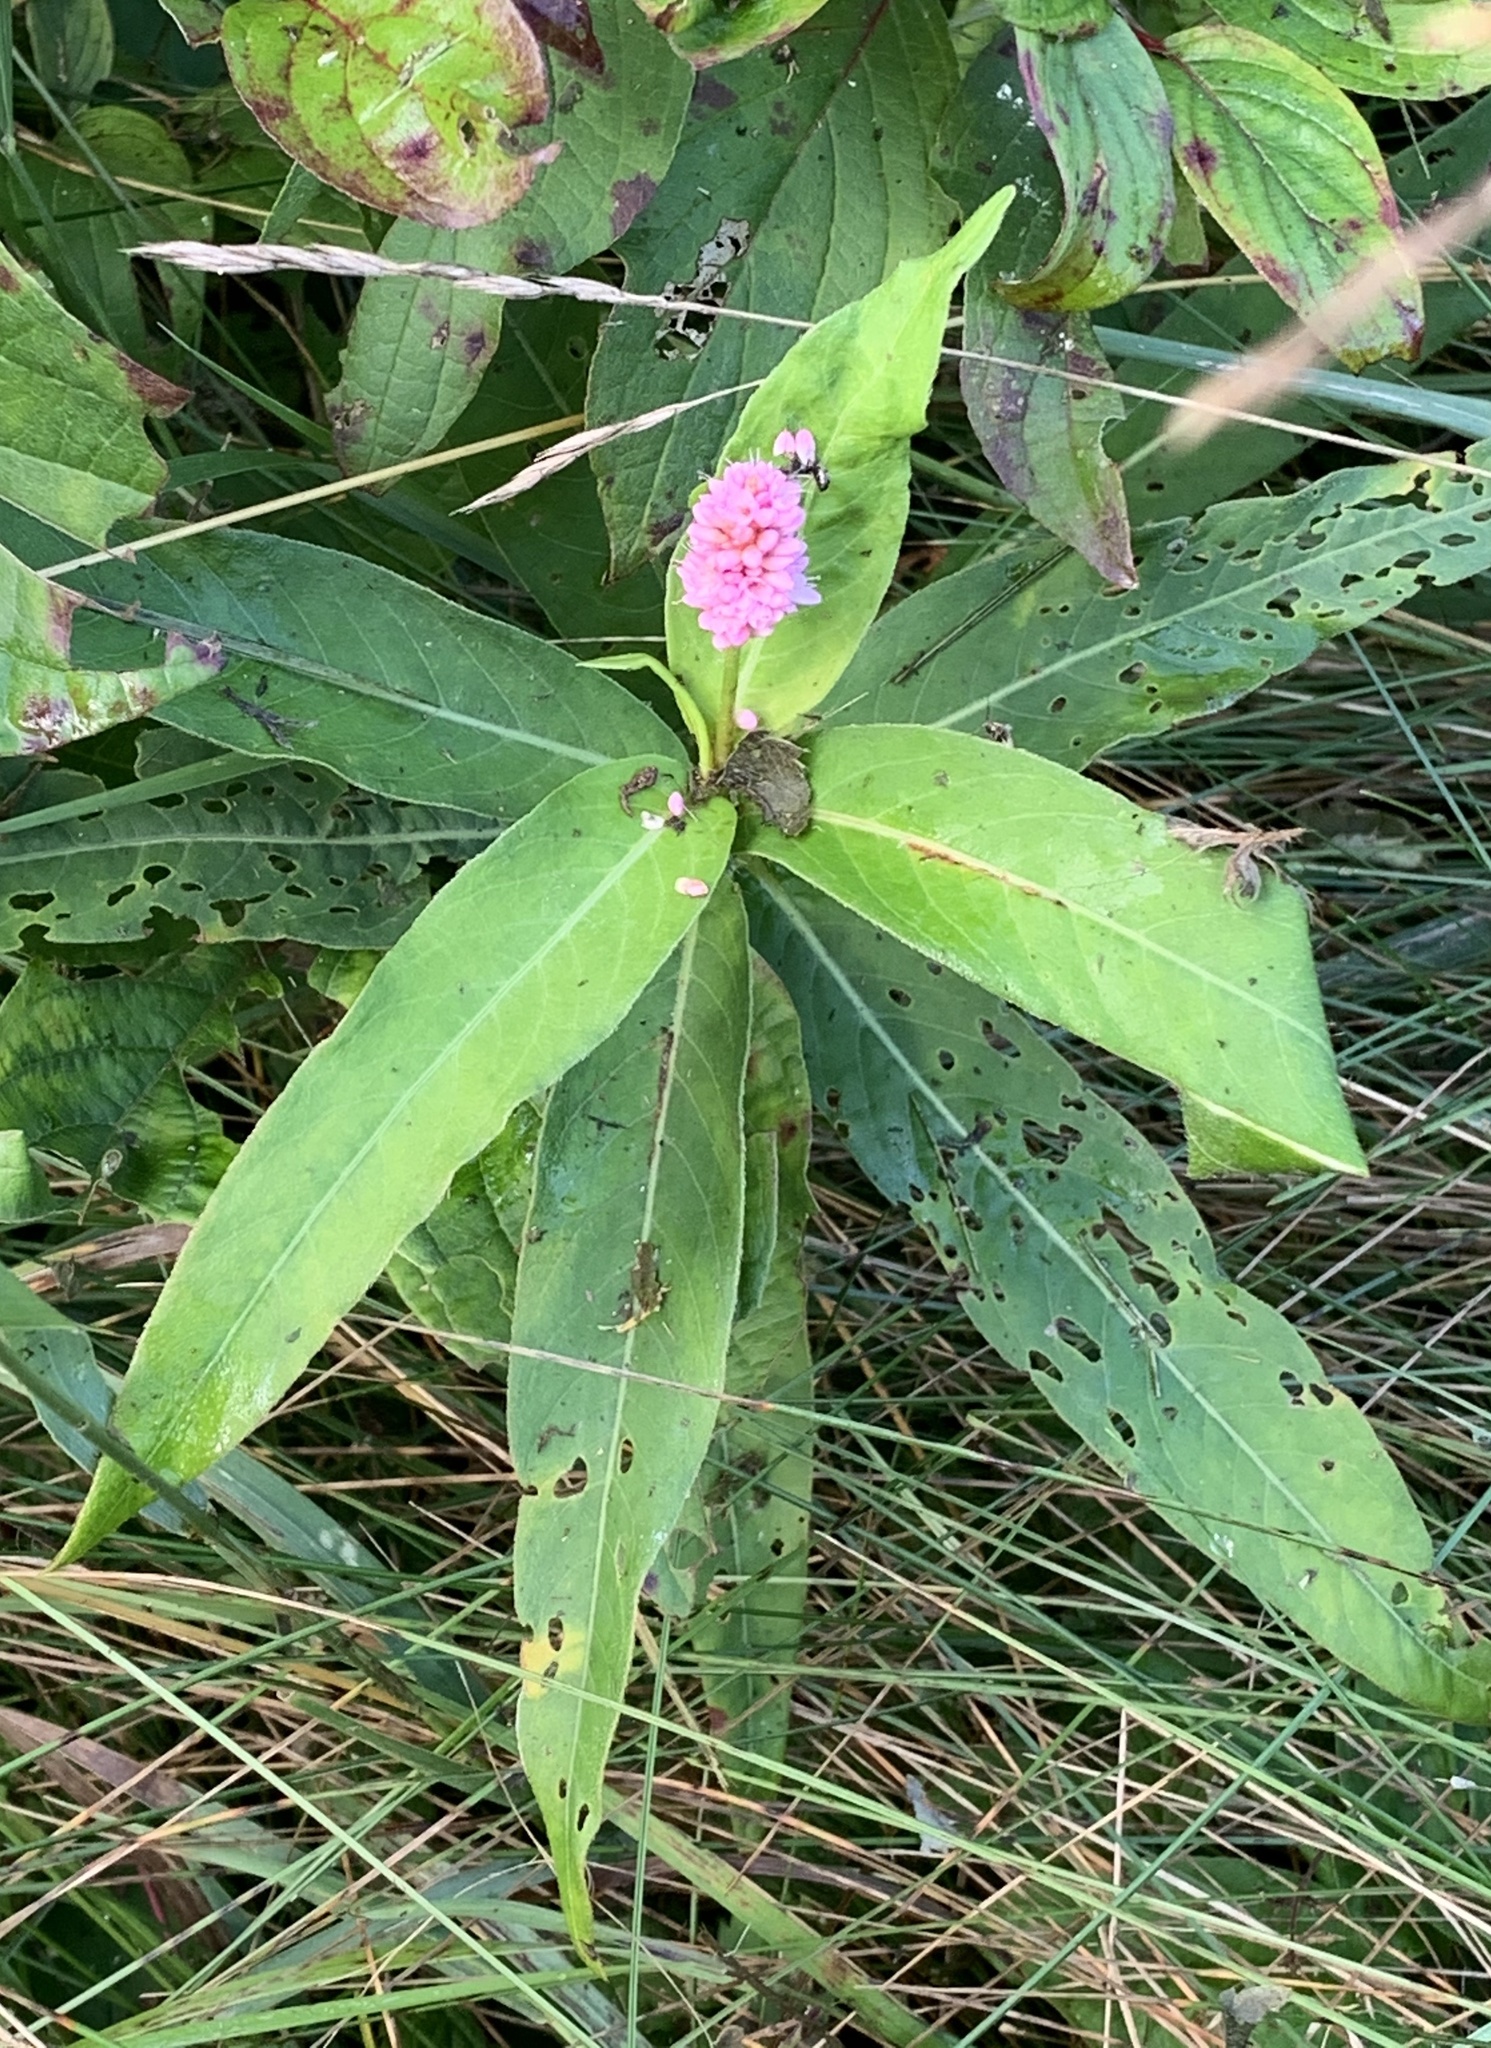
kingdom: Plantae
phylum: Tracheophyta
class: Magnoliopsida
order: Caryophyllales
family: Polygonaceae
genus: Persicaria
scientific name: Persicaria amphibia
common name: Amphibious bistort
